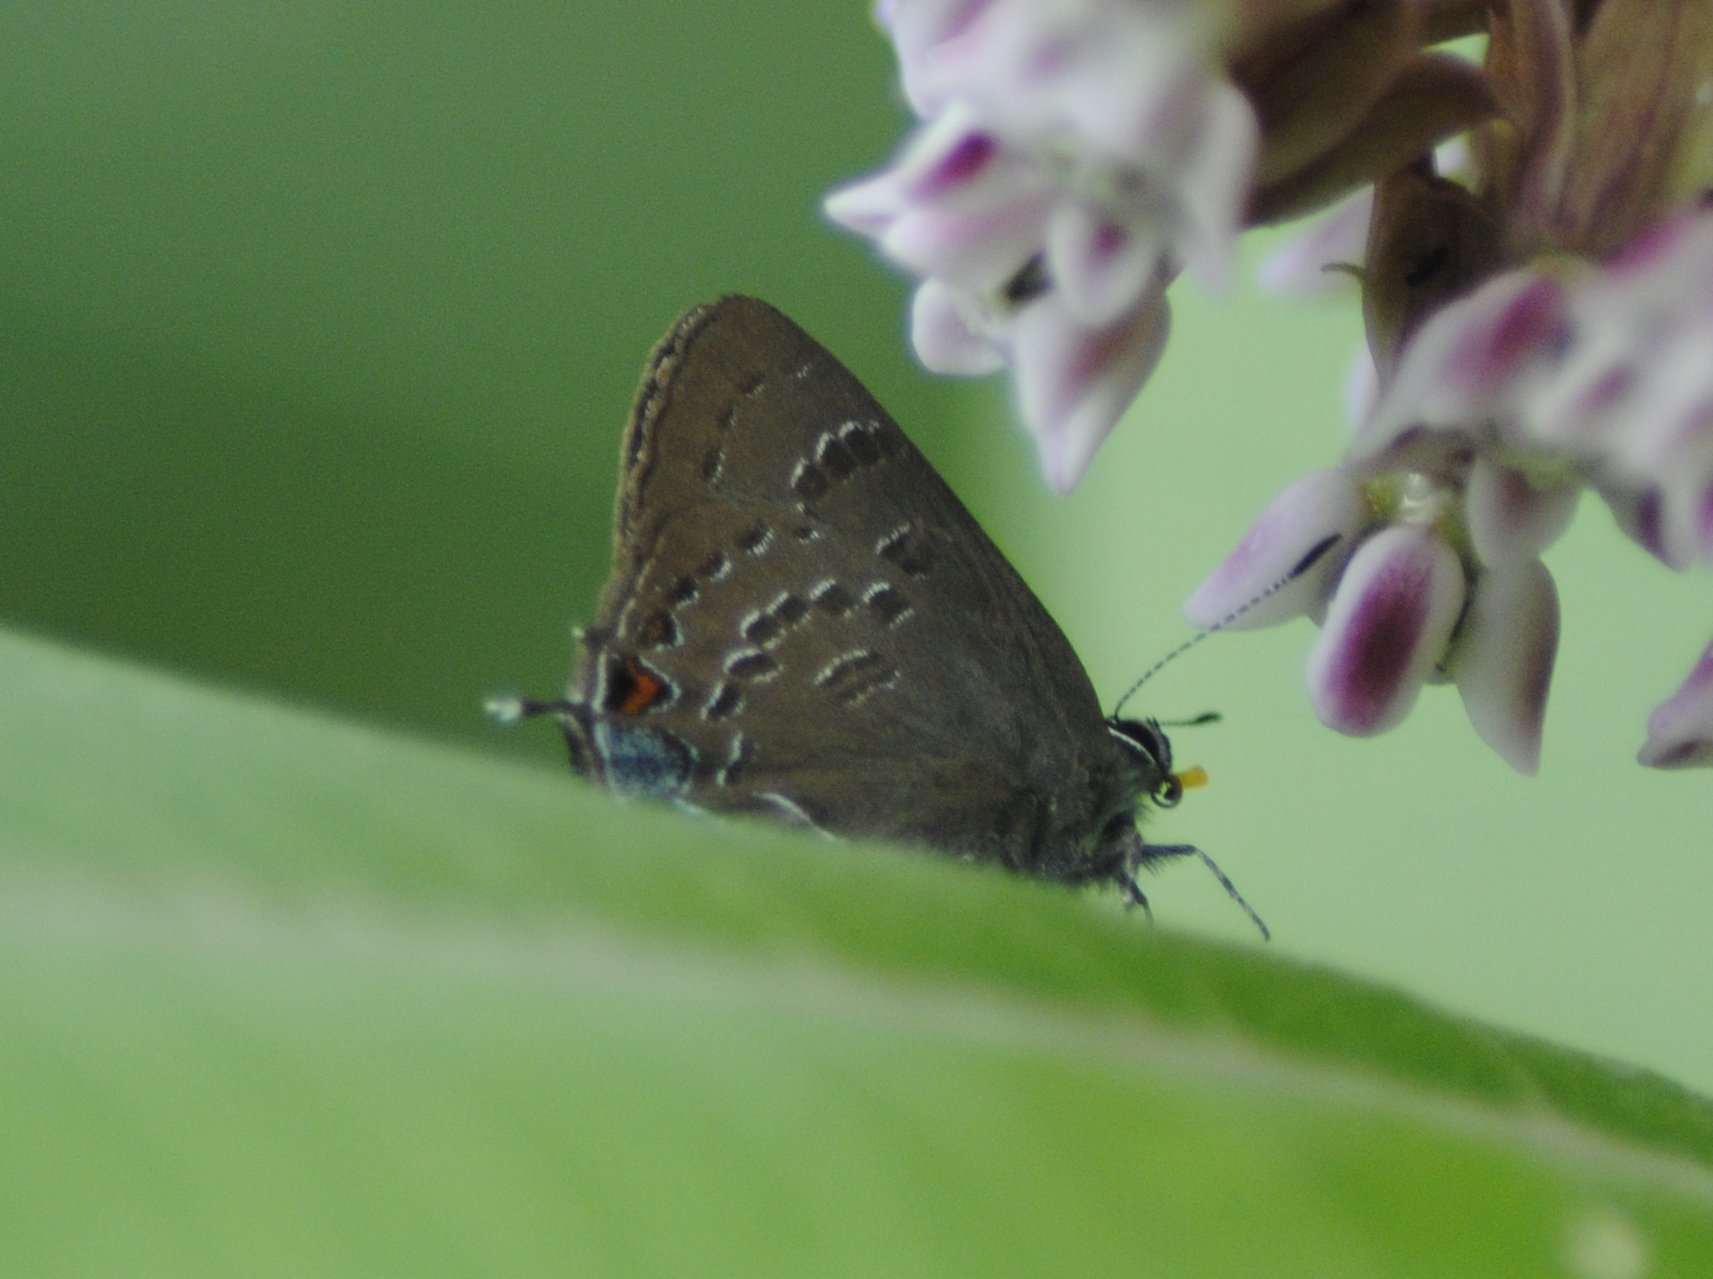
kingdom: Animalia
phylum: Arthropoda
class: Insecta
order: Lepidoptera
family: Lycaenidae
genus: Satyrium
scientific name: Satyrium calanus
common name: Banded hairstreak
